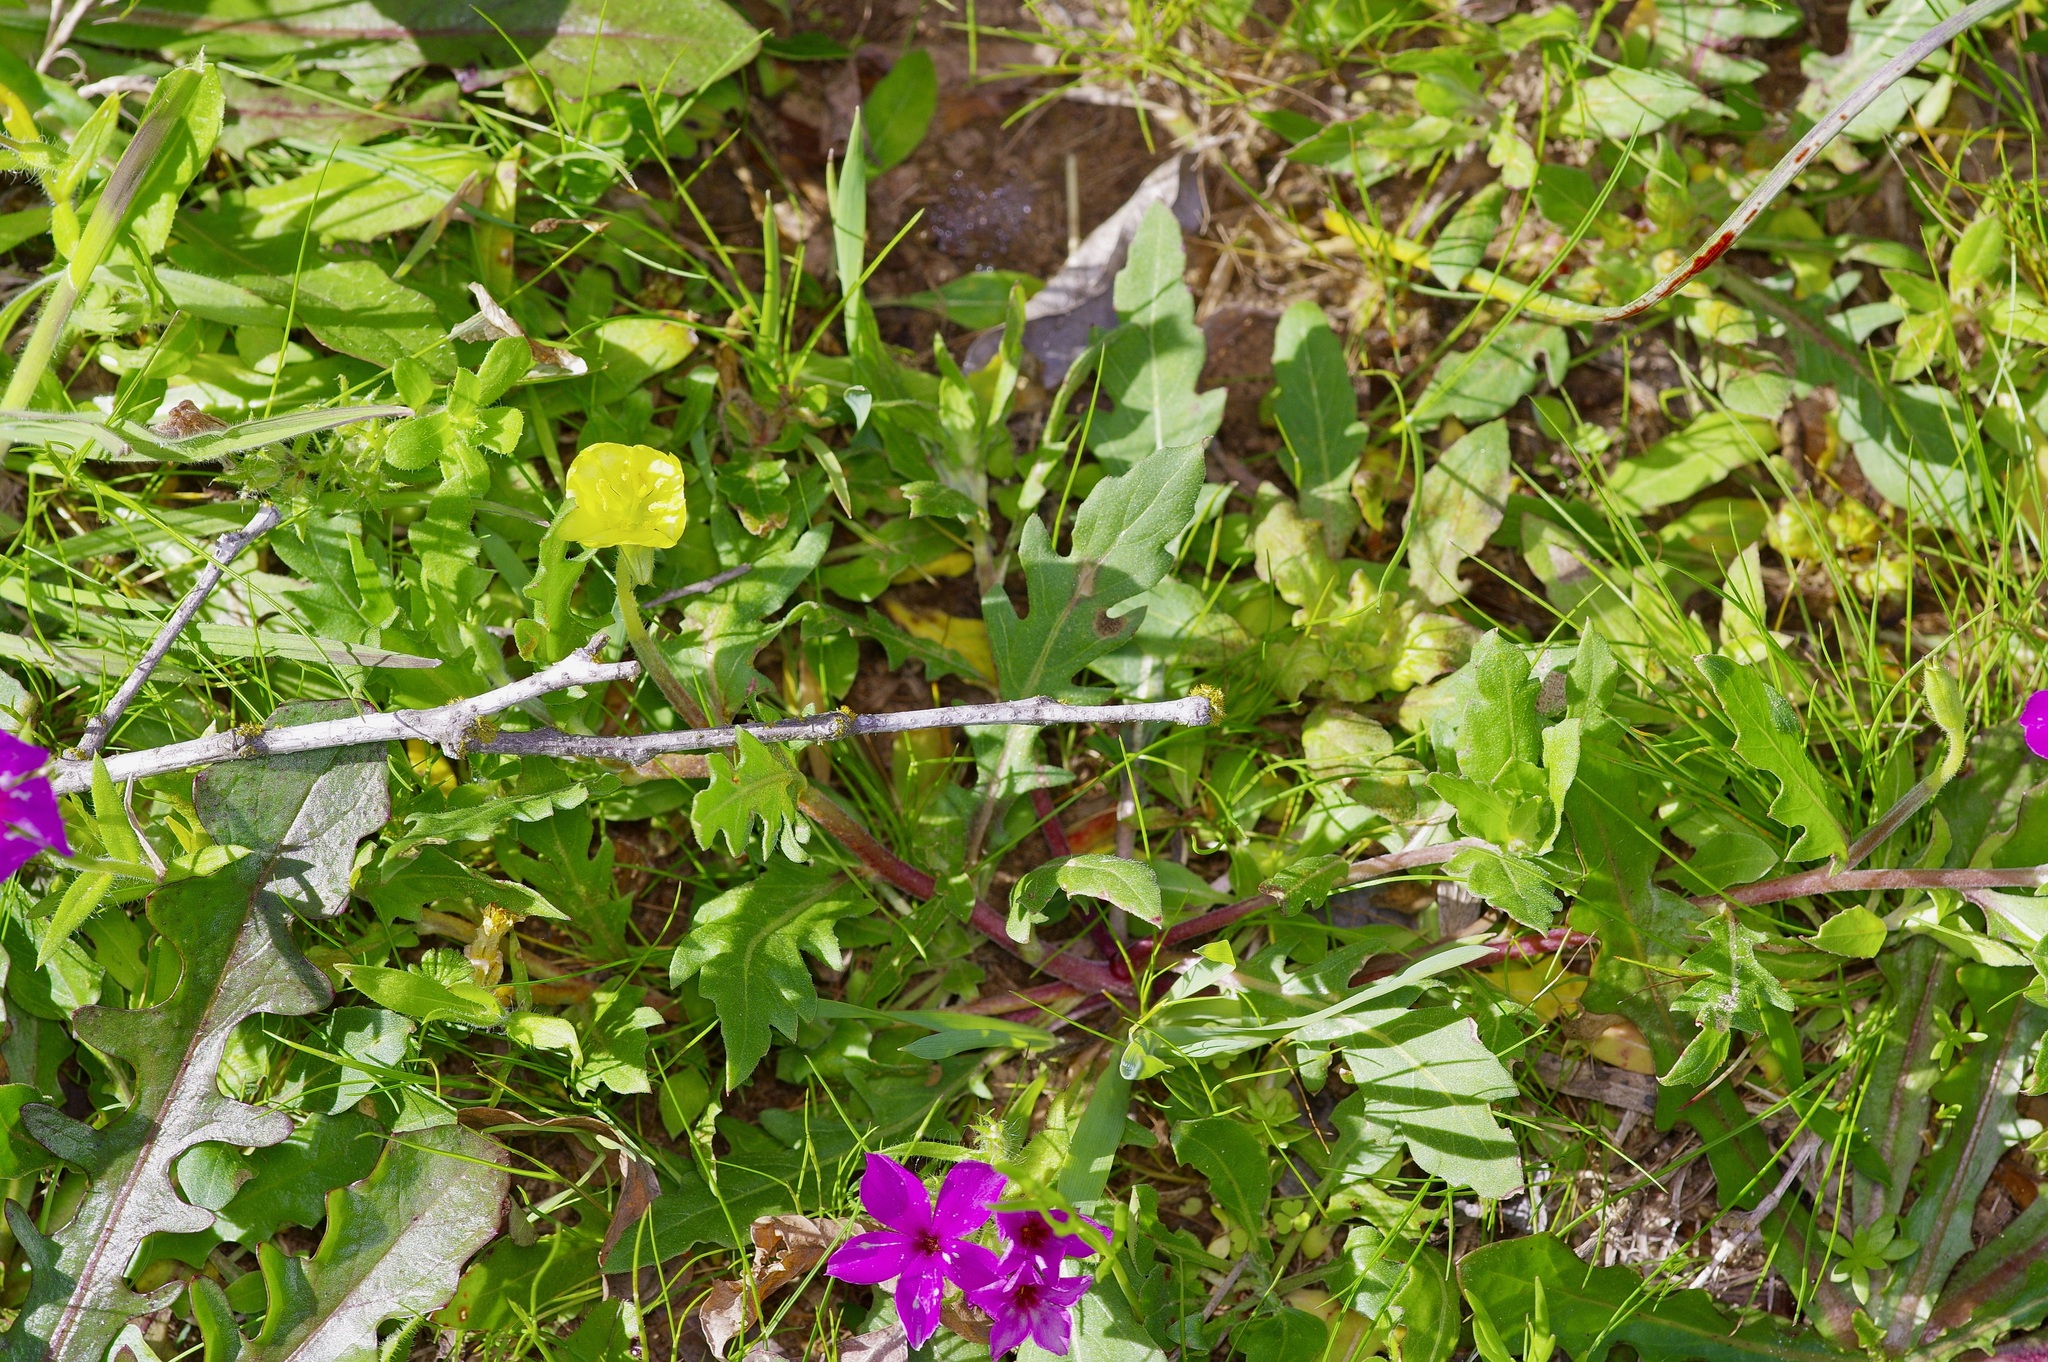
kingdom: Plantae
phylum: Tracheophyta
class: Magnoliopsida
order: Myrtales
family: Onagraceae
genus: Oenothera
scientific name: Oenothera laciniata
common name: Cut-leaved evening-primrose
